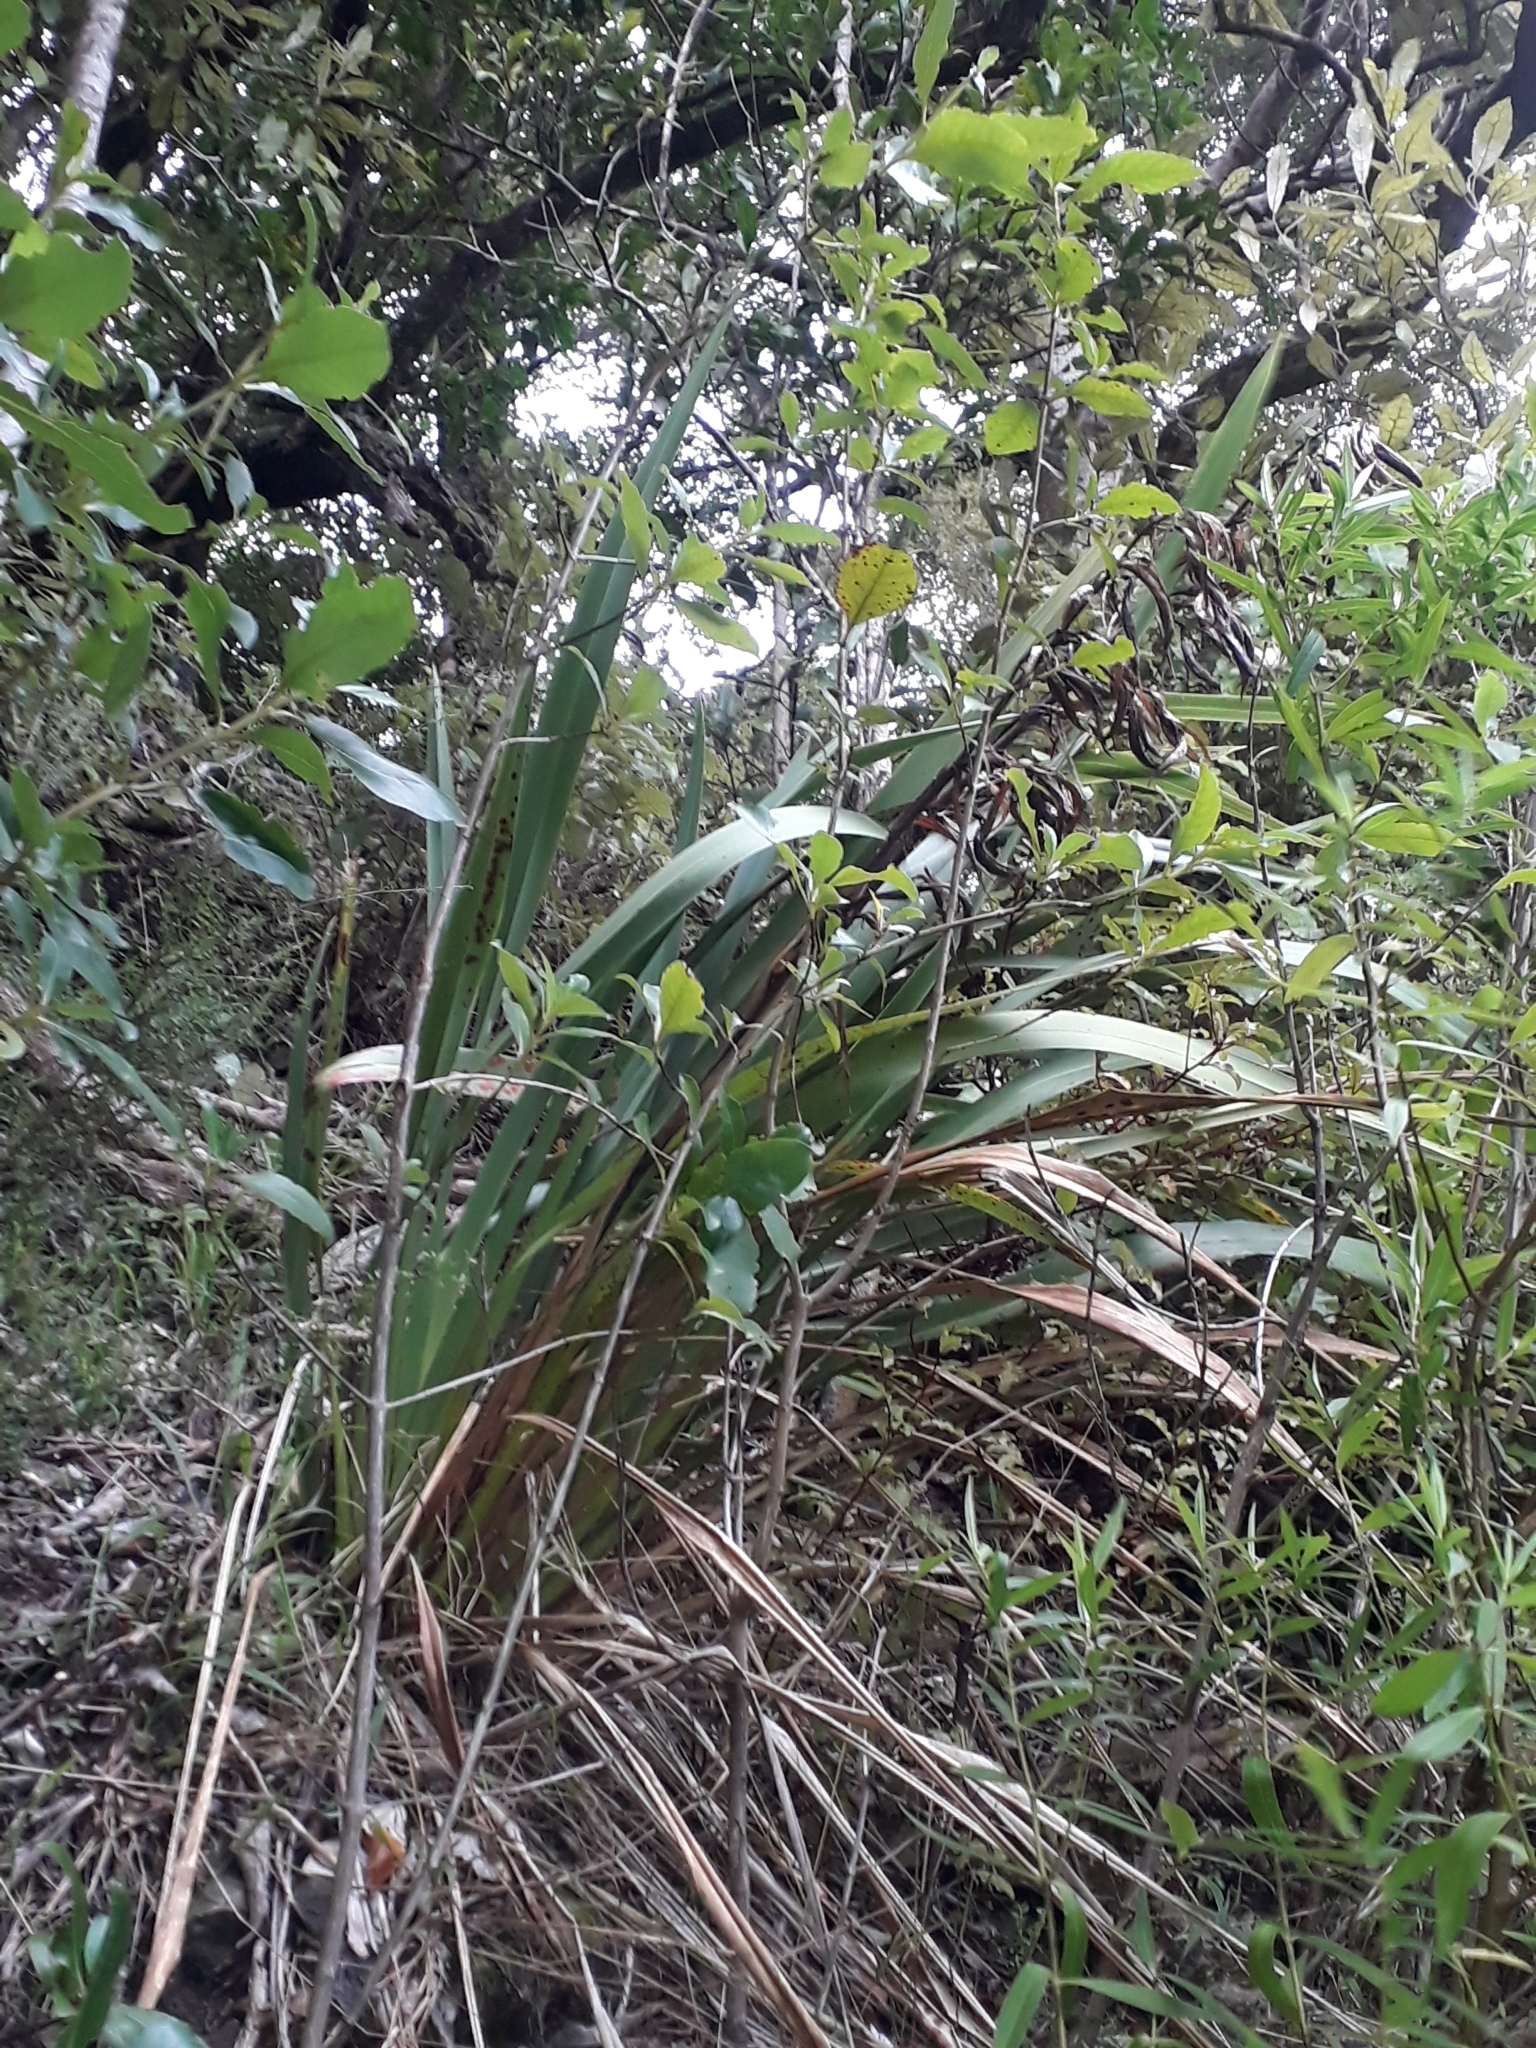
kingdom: Plantae
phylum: Tracheophyta
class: Liliopsida
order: Asparagales
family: Asphodelaceae
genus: Phormium
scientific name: Phormium colensoi
